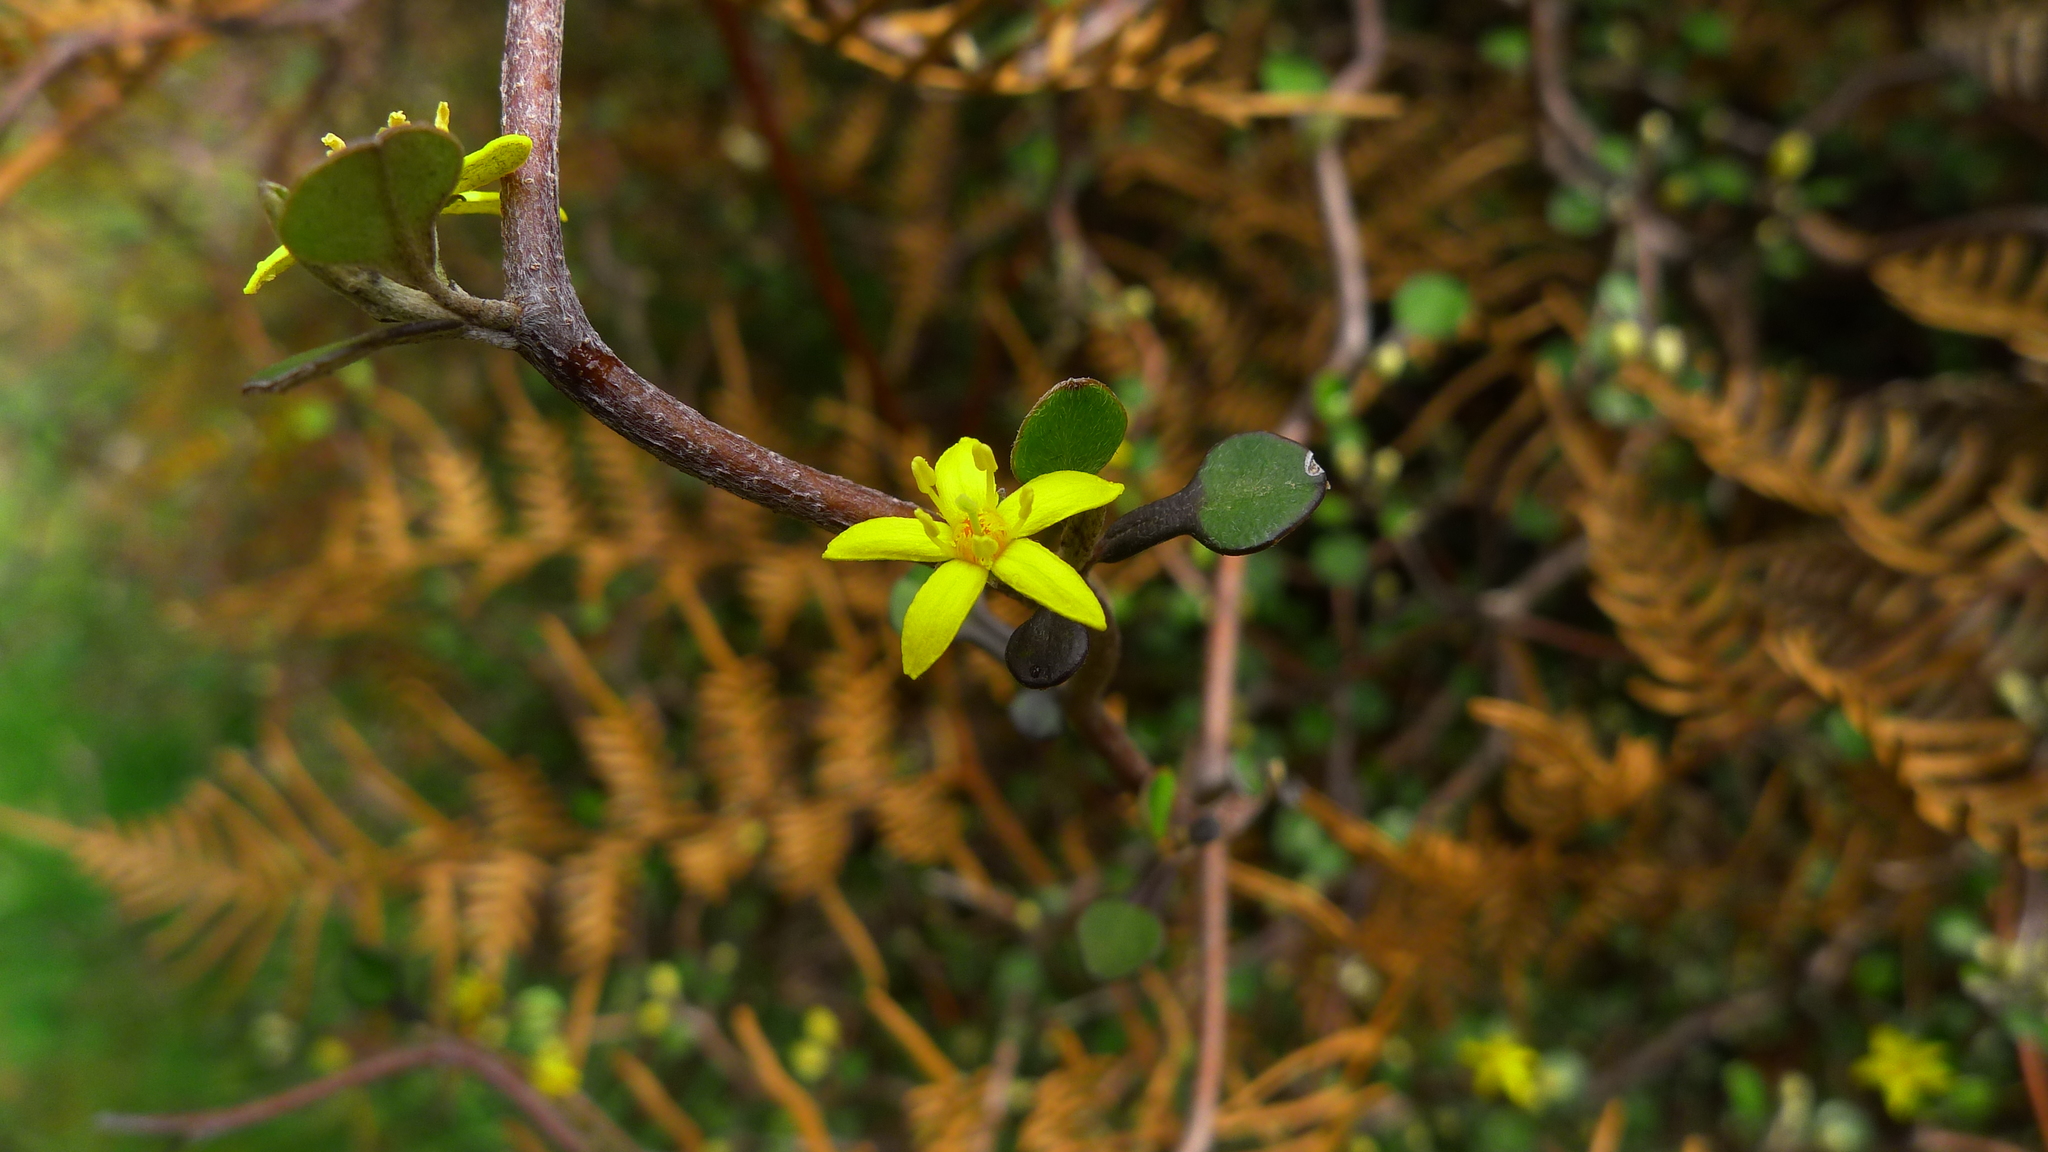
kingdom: Plantae
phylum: Tracheophyta
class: Magnoliopsida
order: Asterales
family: Argophyllaceae
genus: Corokia
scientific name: Corokia cotoneaster
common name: Wire nettingbush
